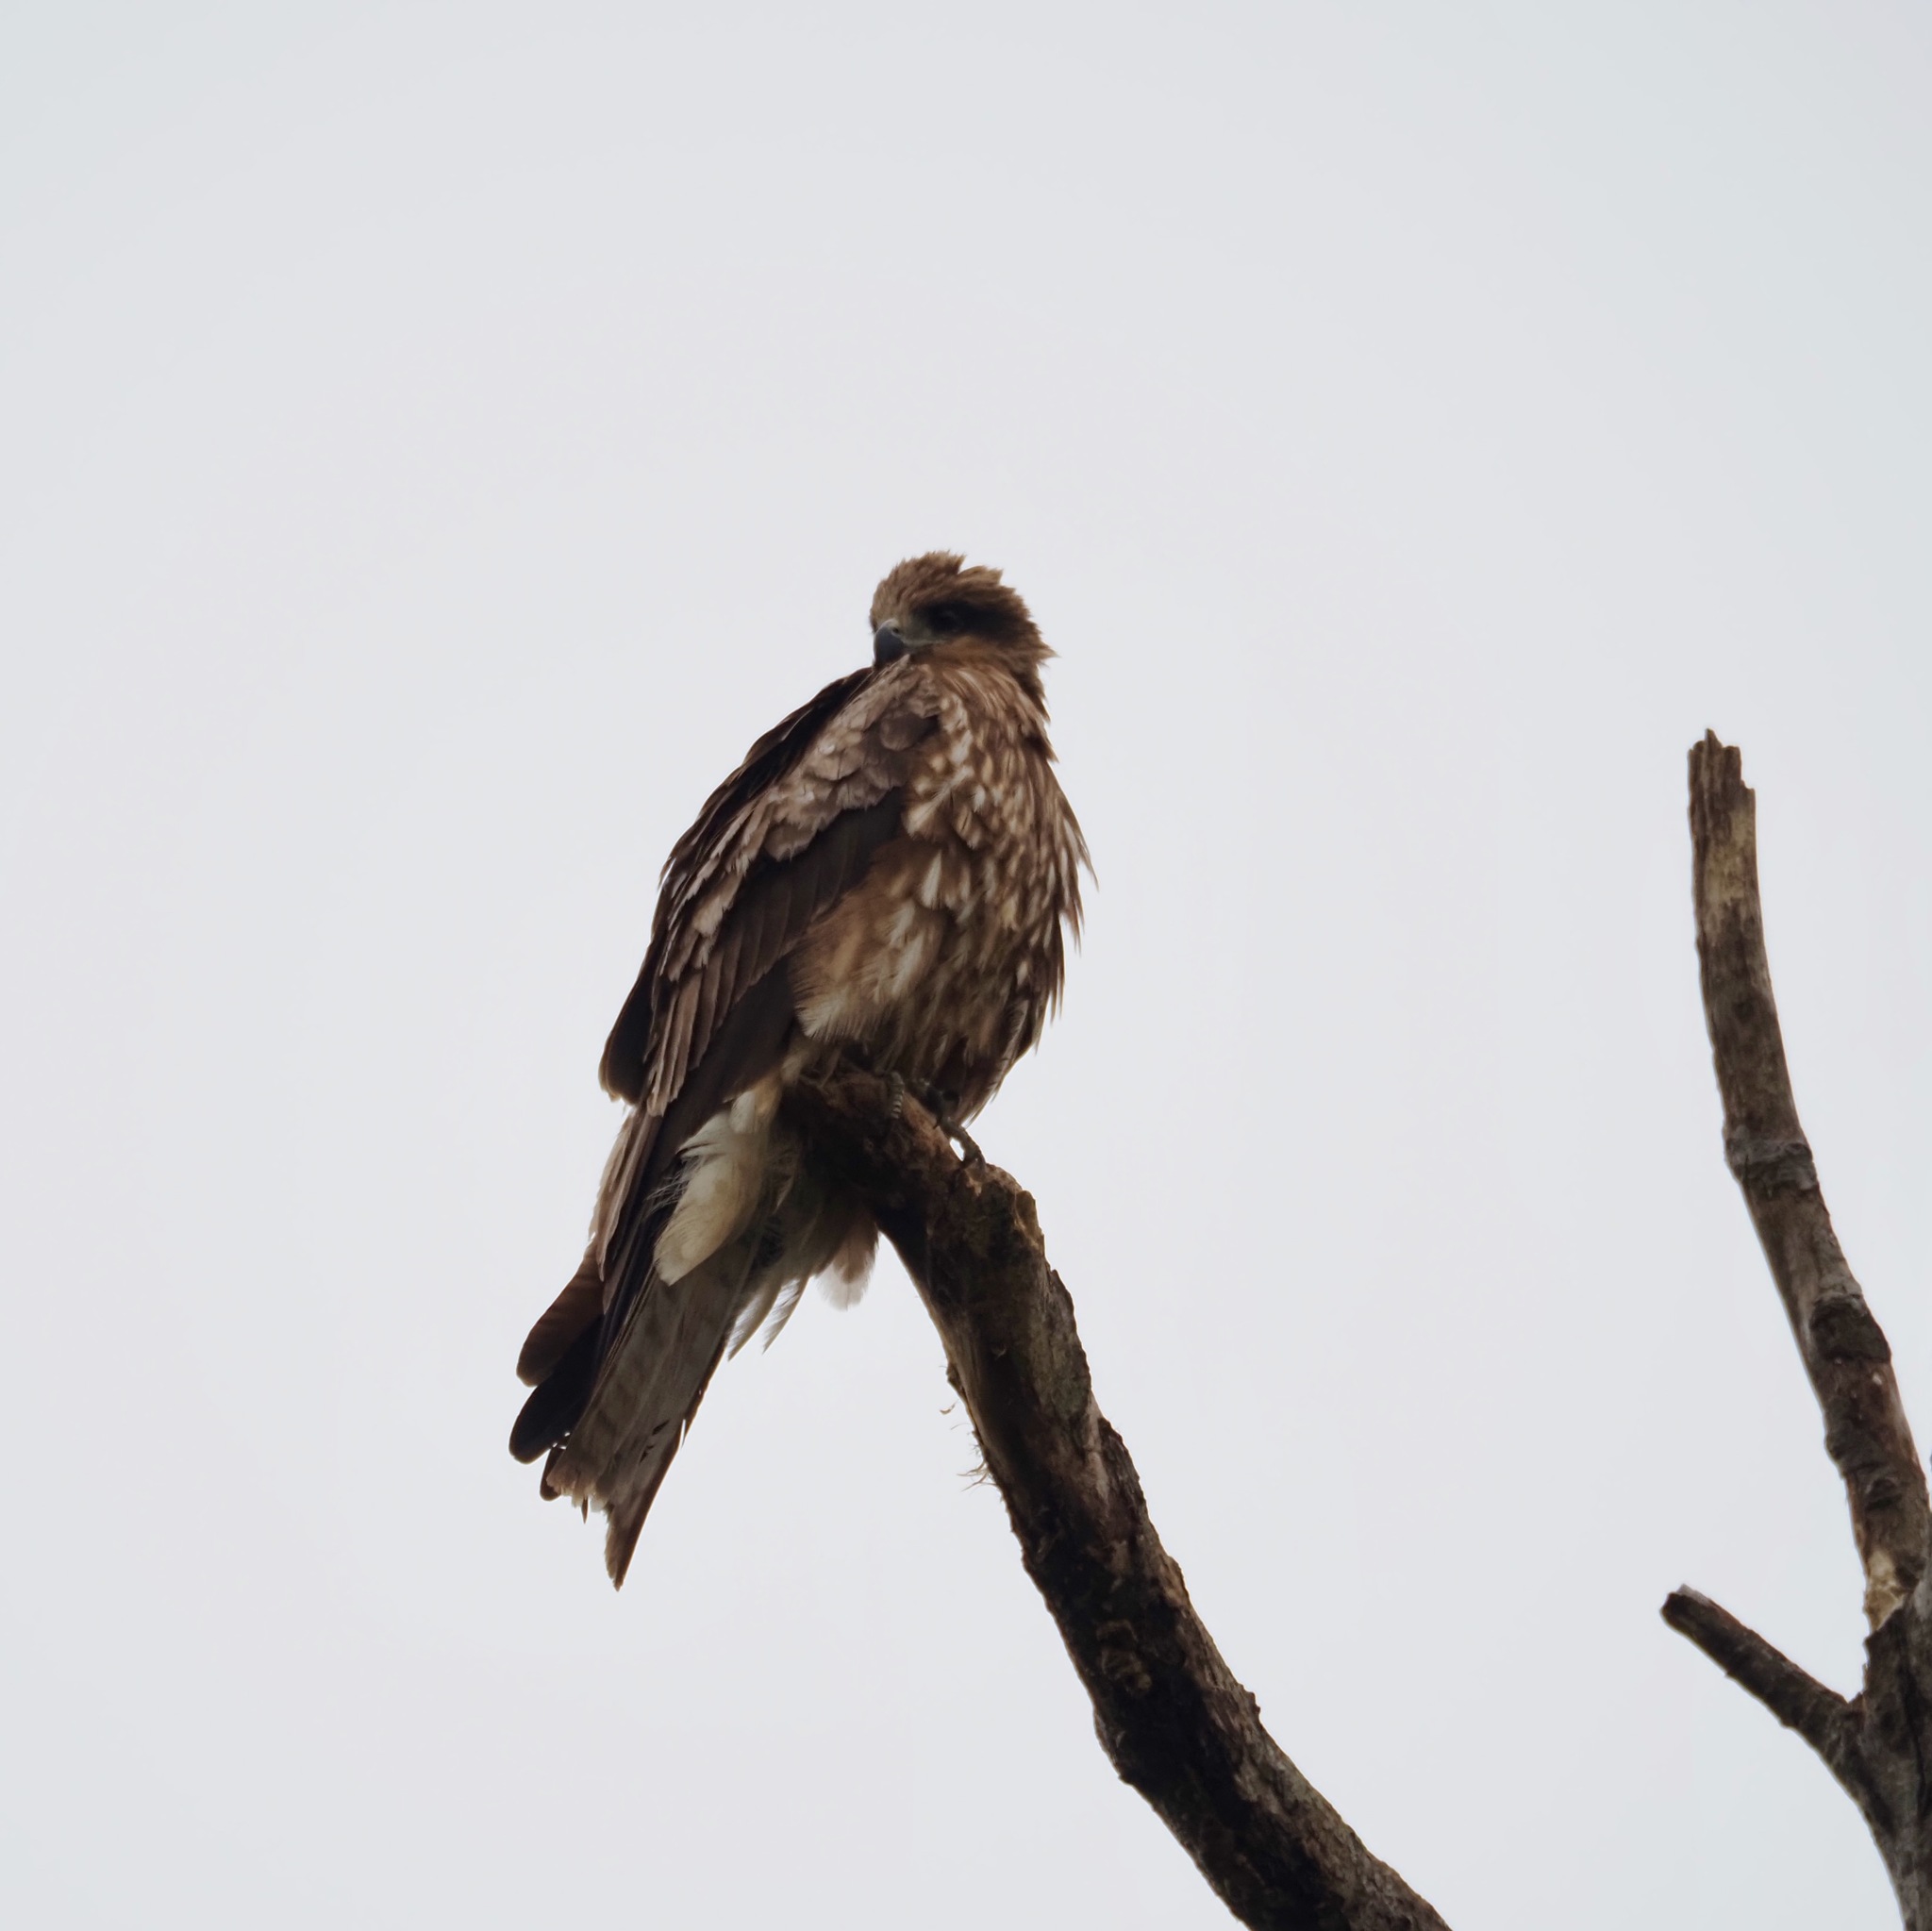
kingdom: Animalia
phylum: Chordata
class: Aves
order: Accipitriformes
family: Accipitridae
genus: Milvus
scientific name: Milvus migrans
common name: Black kite
